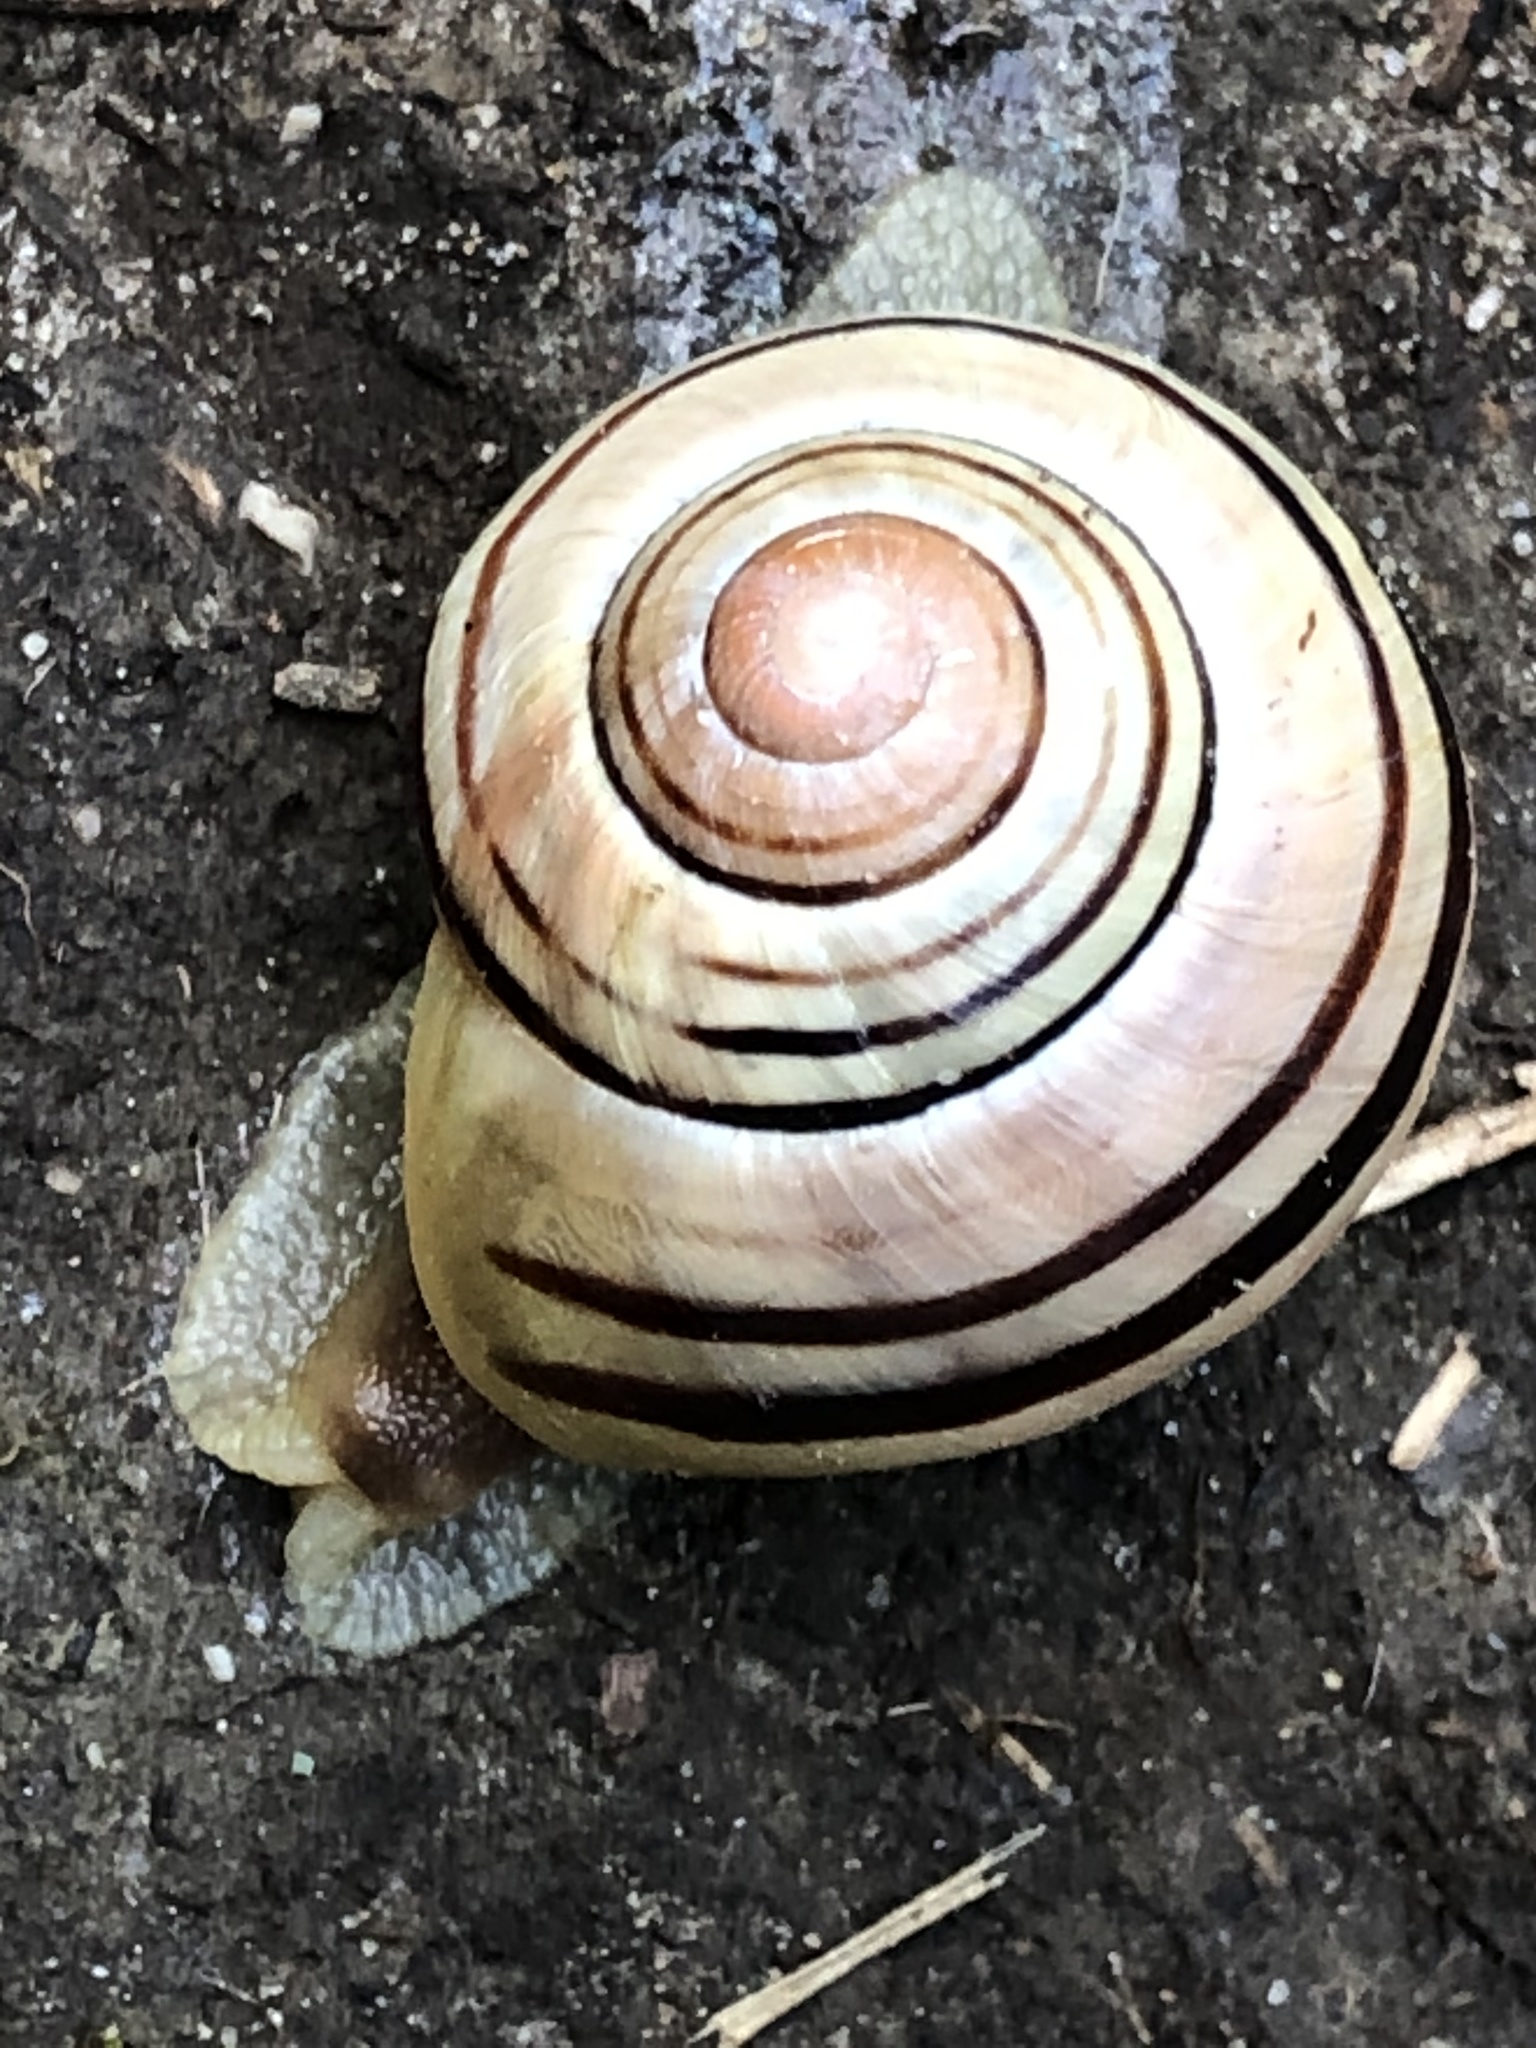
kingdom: Animalia
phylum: Mollusca
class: Gastropoda
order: Stylommatophora
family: Helicidae
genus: Cepaea
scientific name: Cepaea nemoralis
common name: Grovesnail
